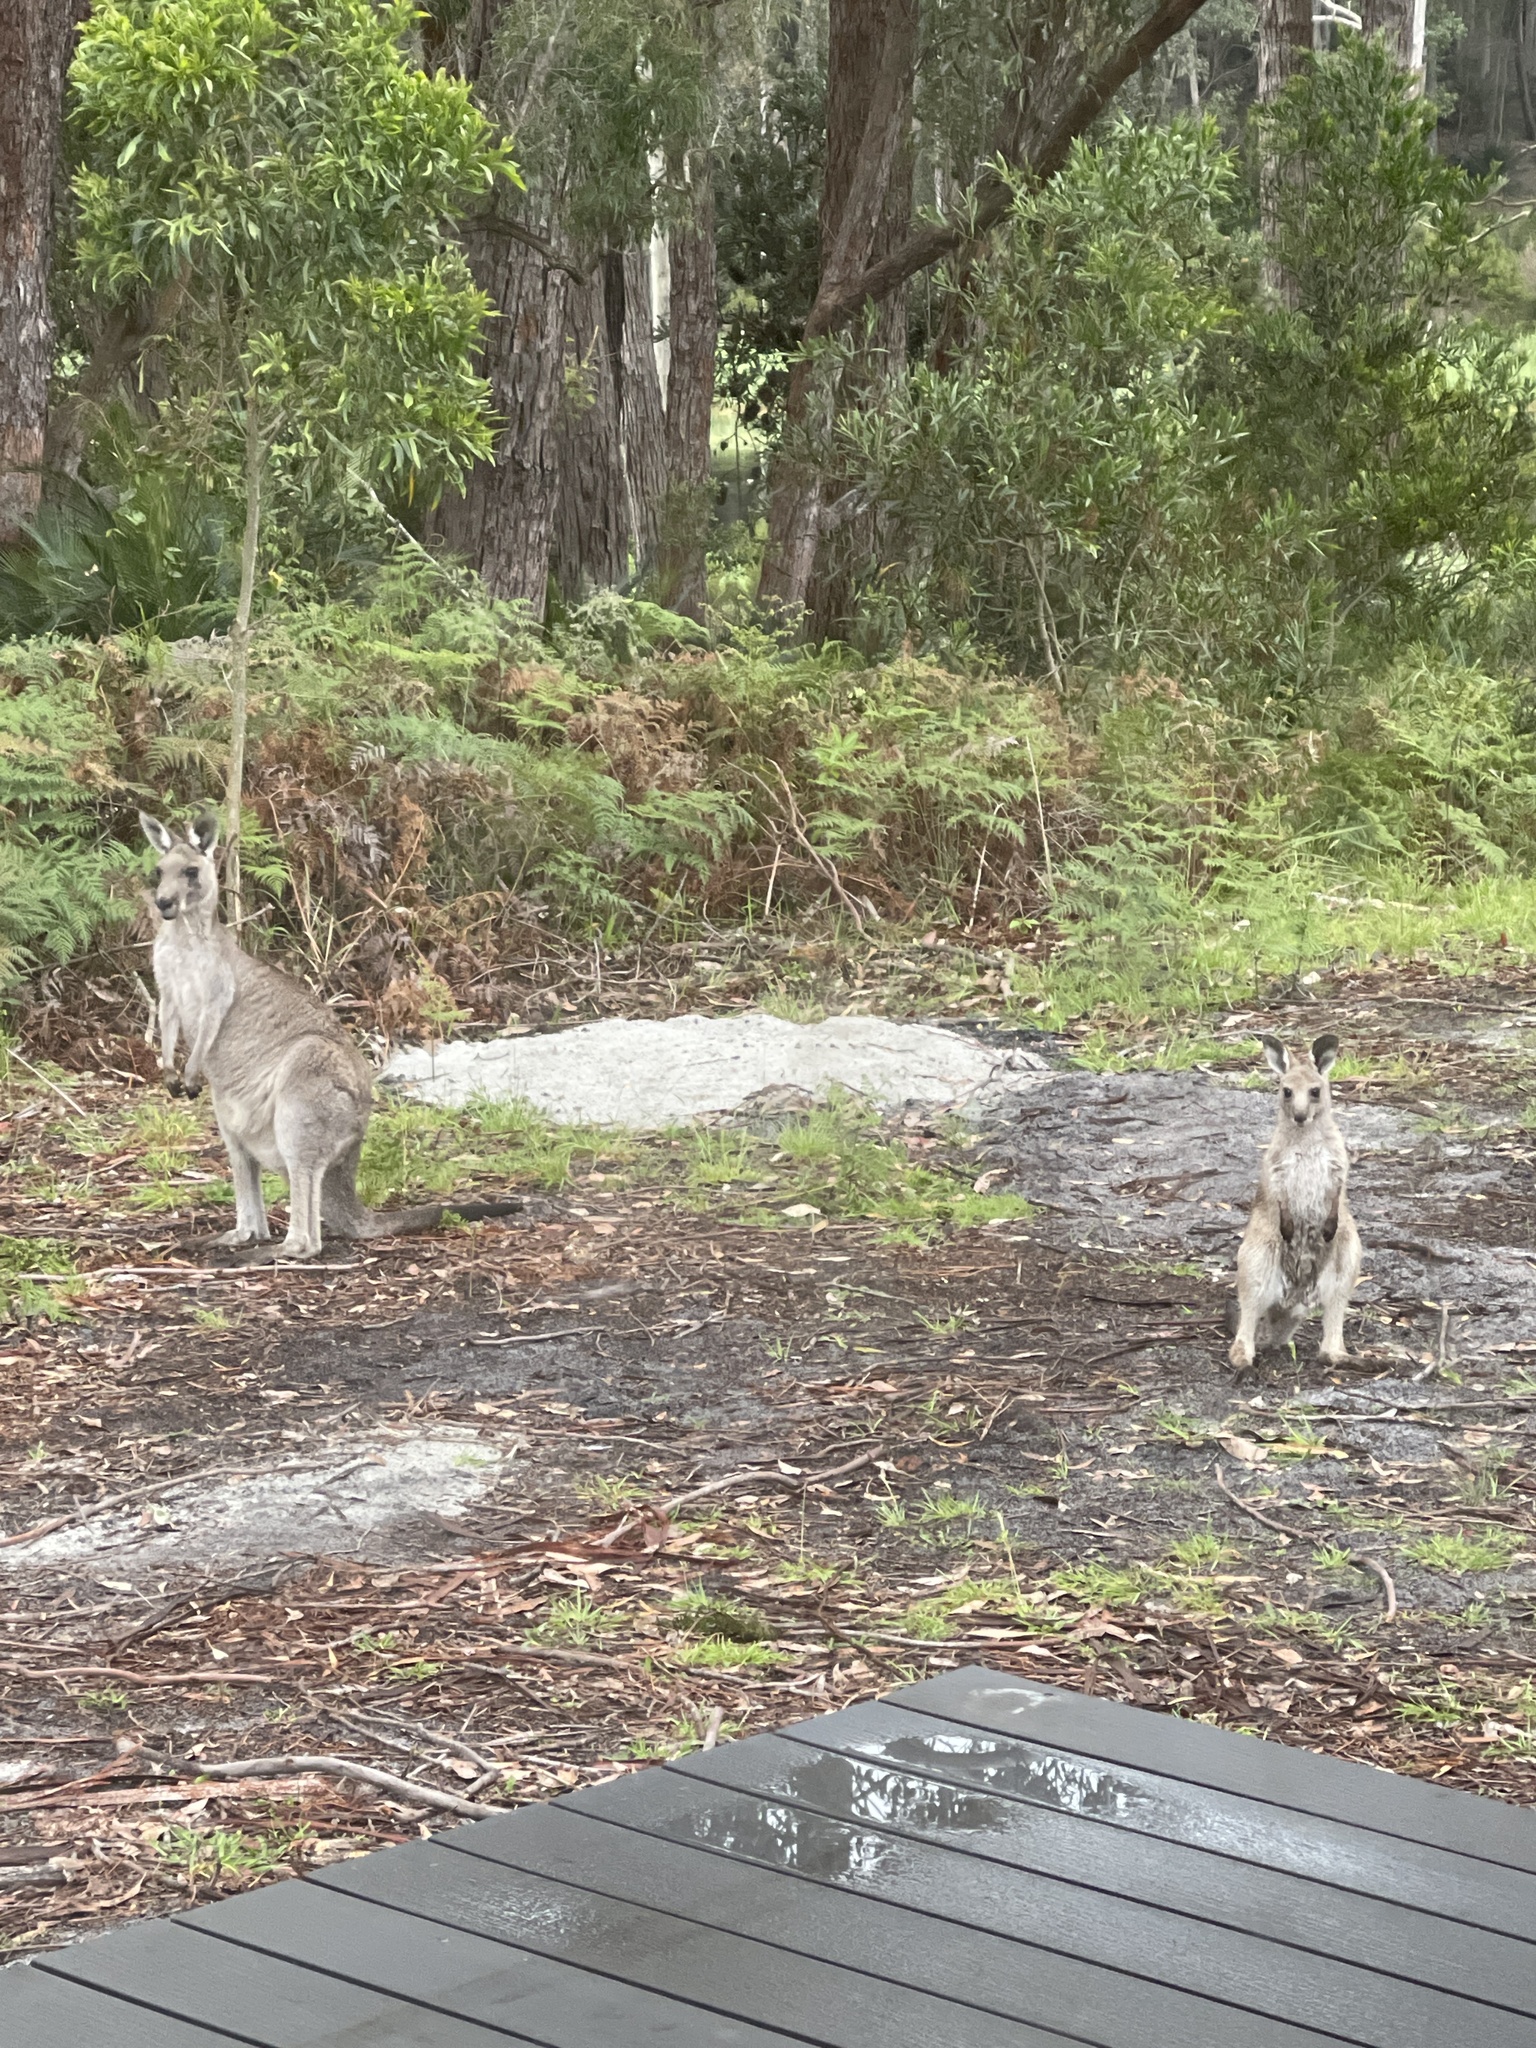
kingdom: Animalia
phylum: Chordata
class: Mammalia
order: Diprotodontia
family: Macropodidae
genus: Macropus
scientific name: Macropus giganteus
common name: Eastern grey kangaroo
